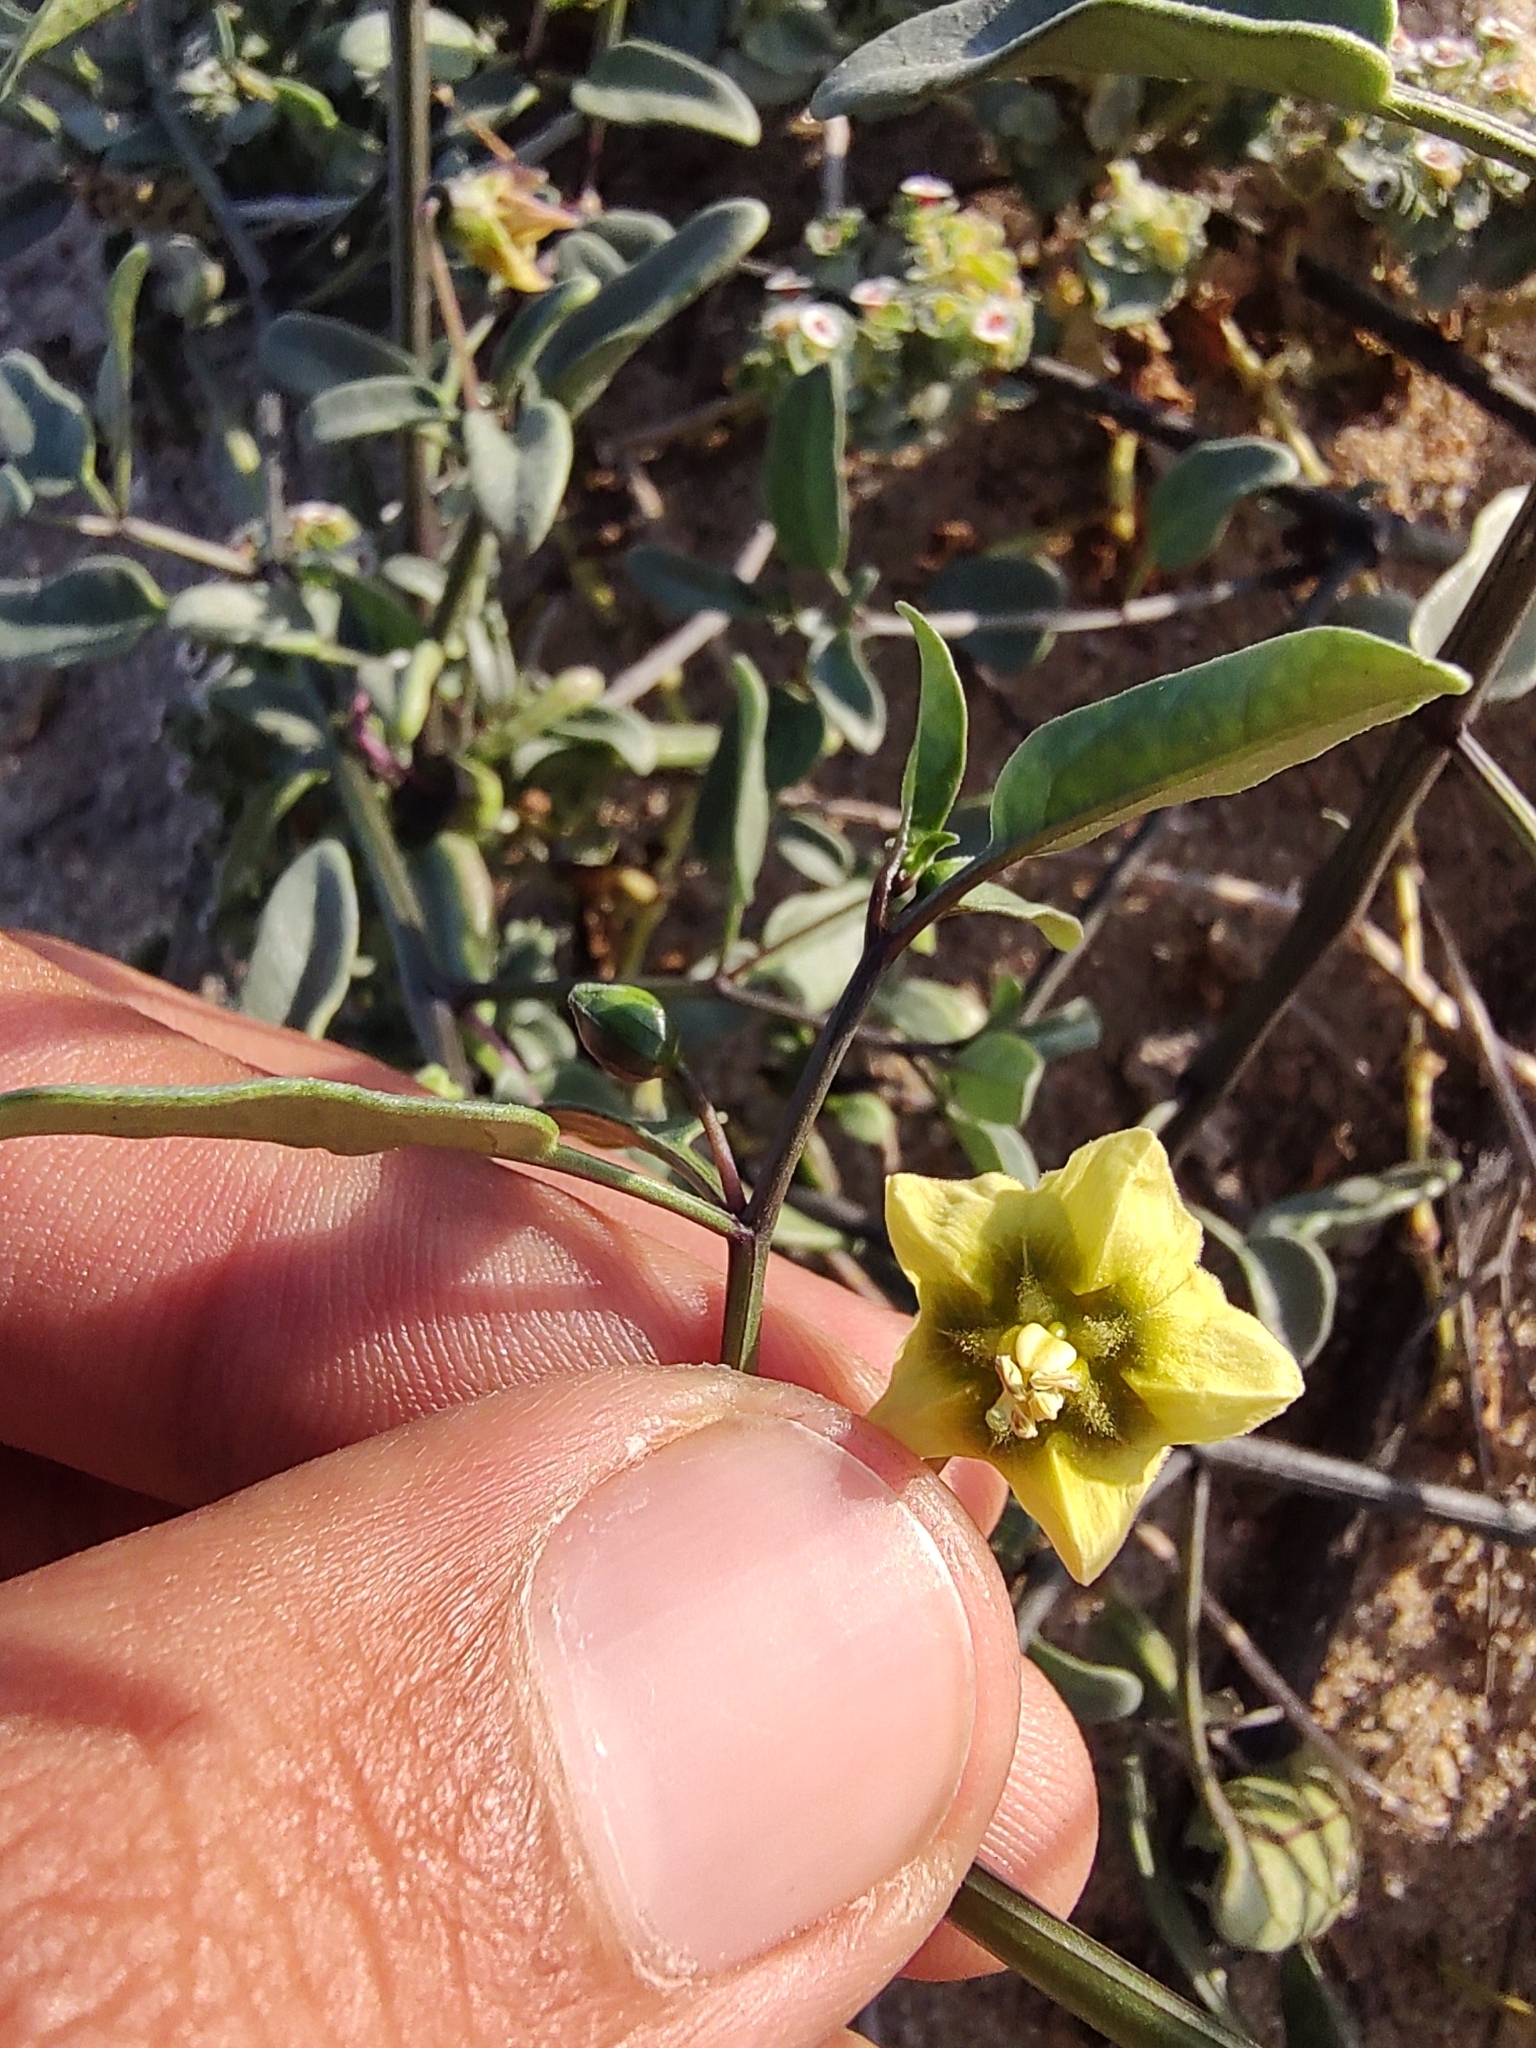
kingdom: Plantae
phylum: Tracheophyta
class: Magnoliopsida
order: Solanales
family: Solanaceae
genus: Physalis
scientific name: Physalis glabra
